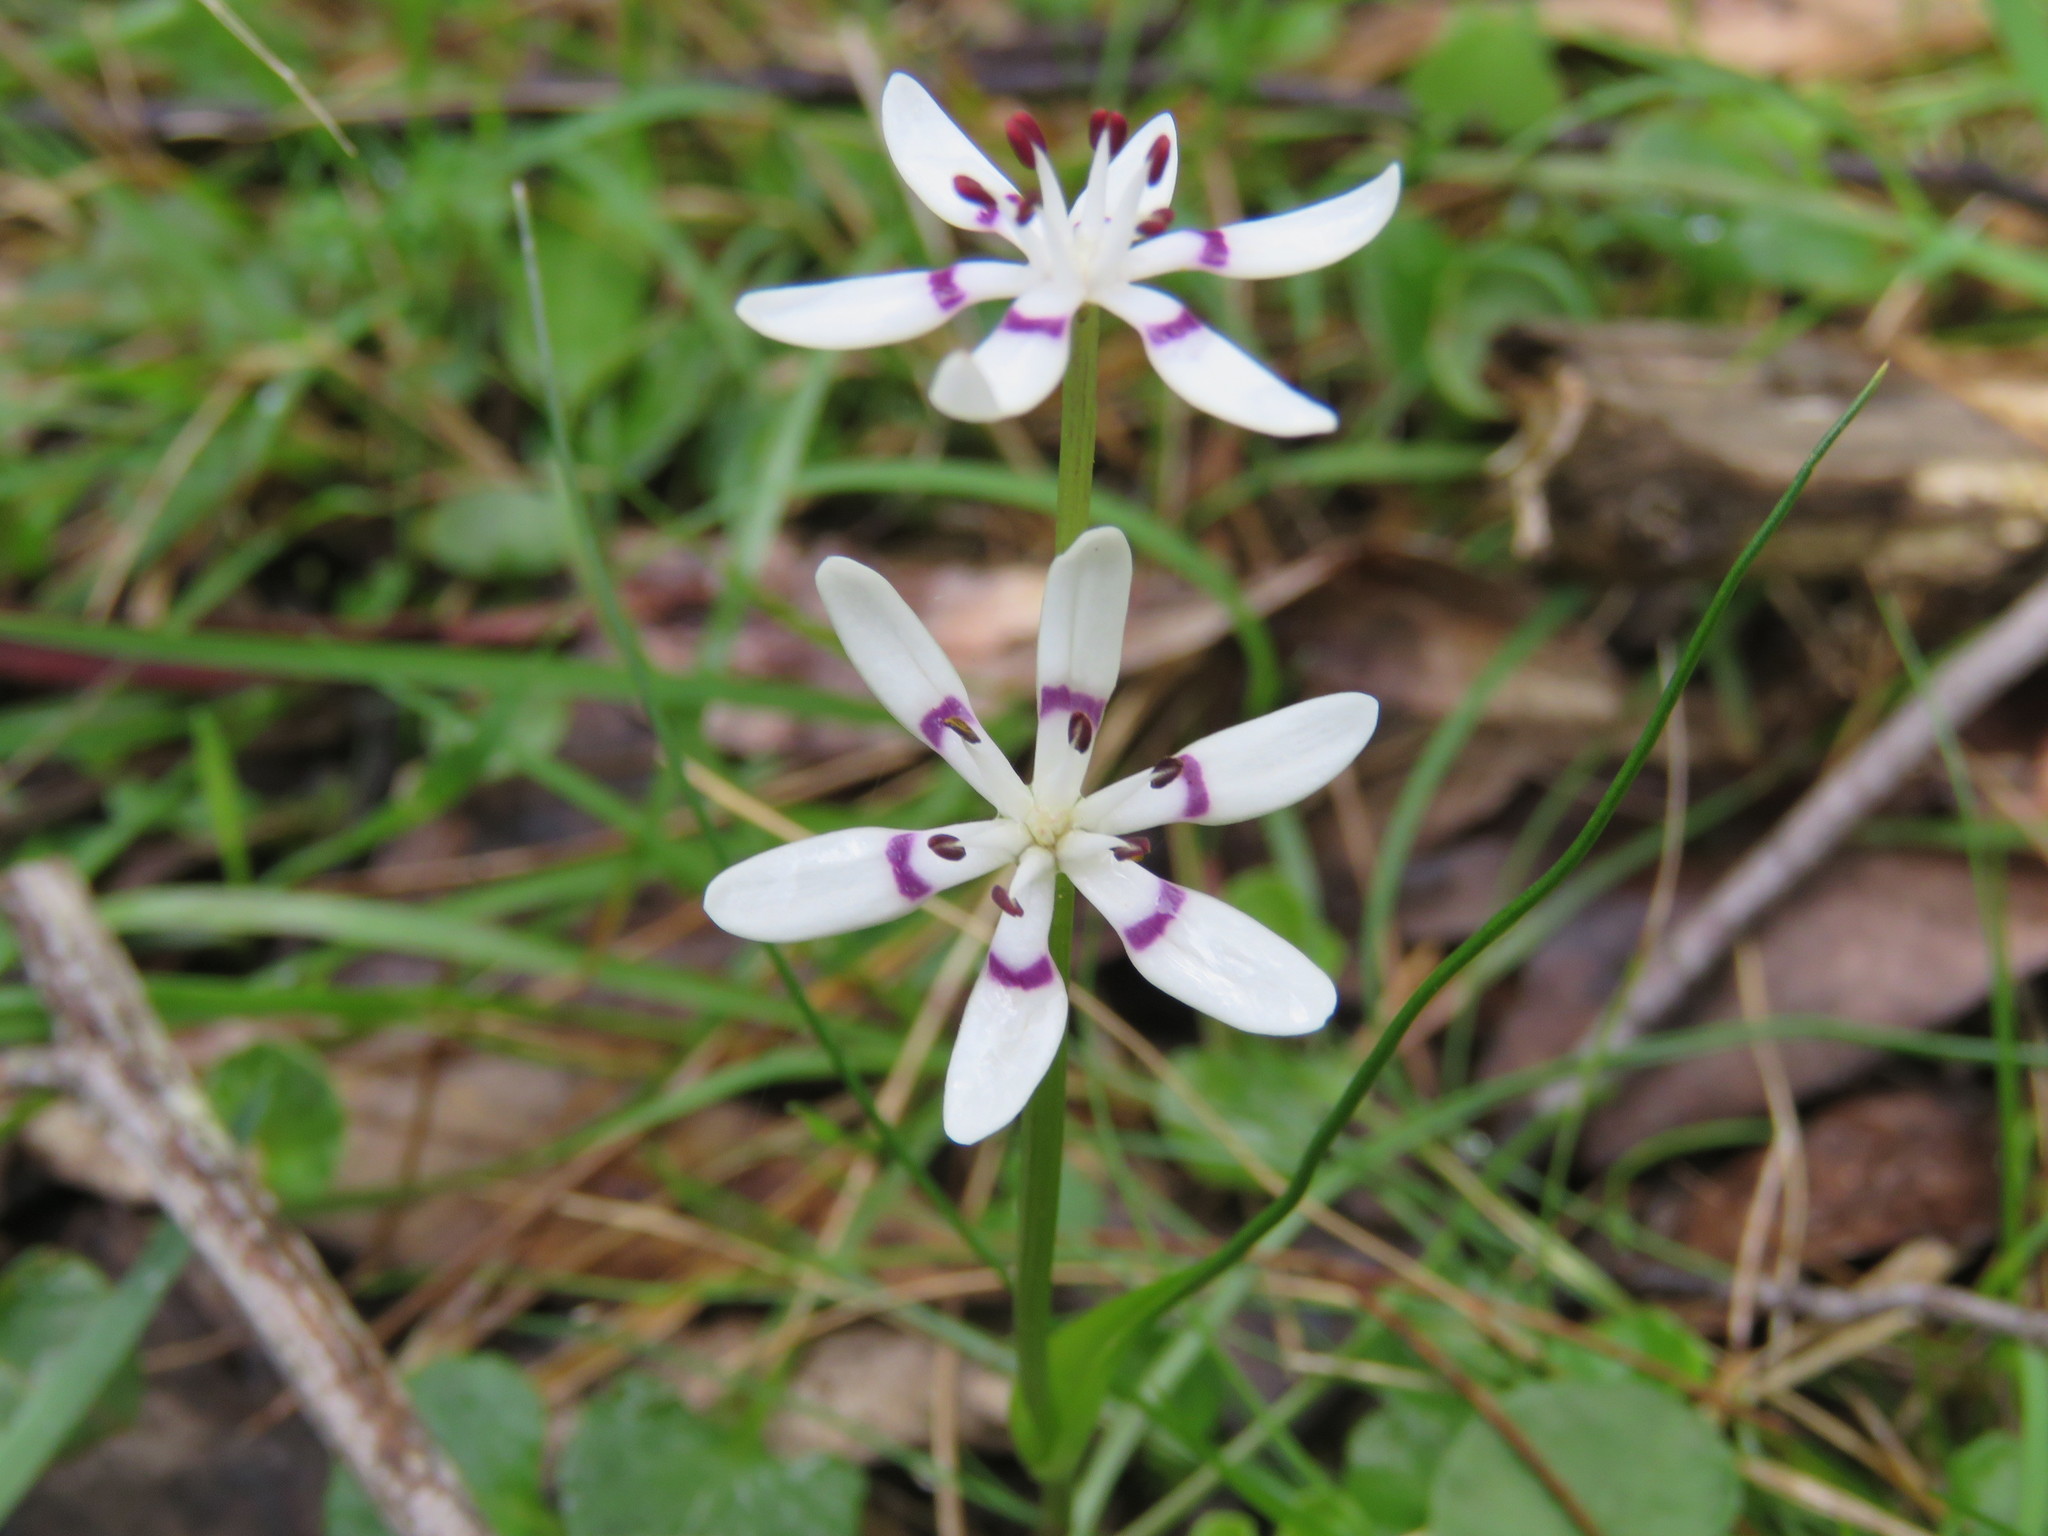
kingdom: Plantae
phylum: Tracheophyta
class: Liliopsida
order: Liliales
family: Colchicaceae
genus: Wurmbea
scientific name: Wurmbea dioica
